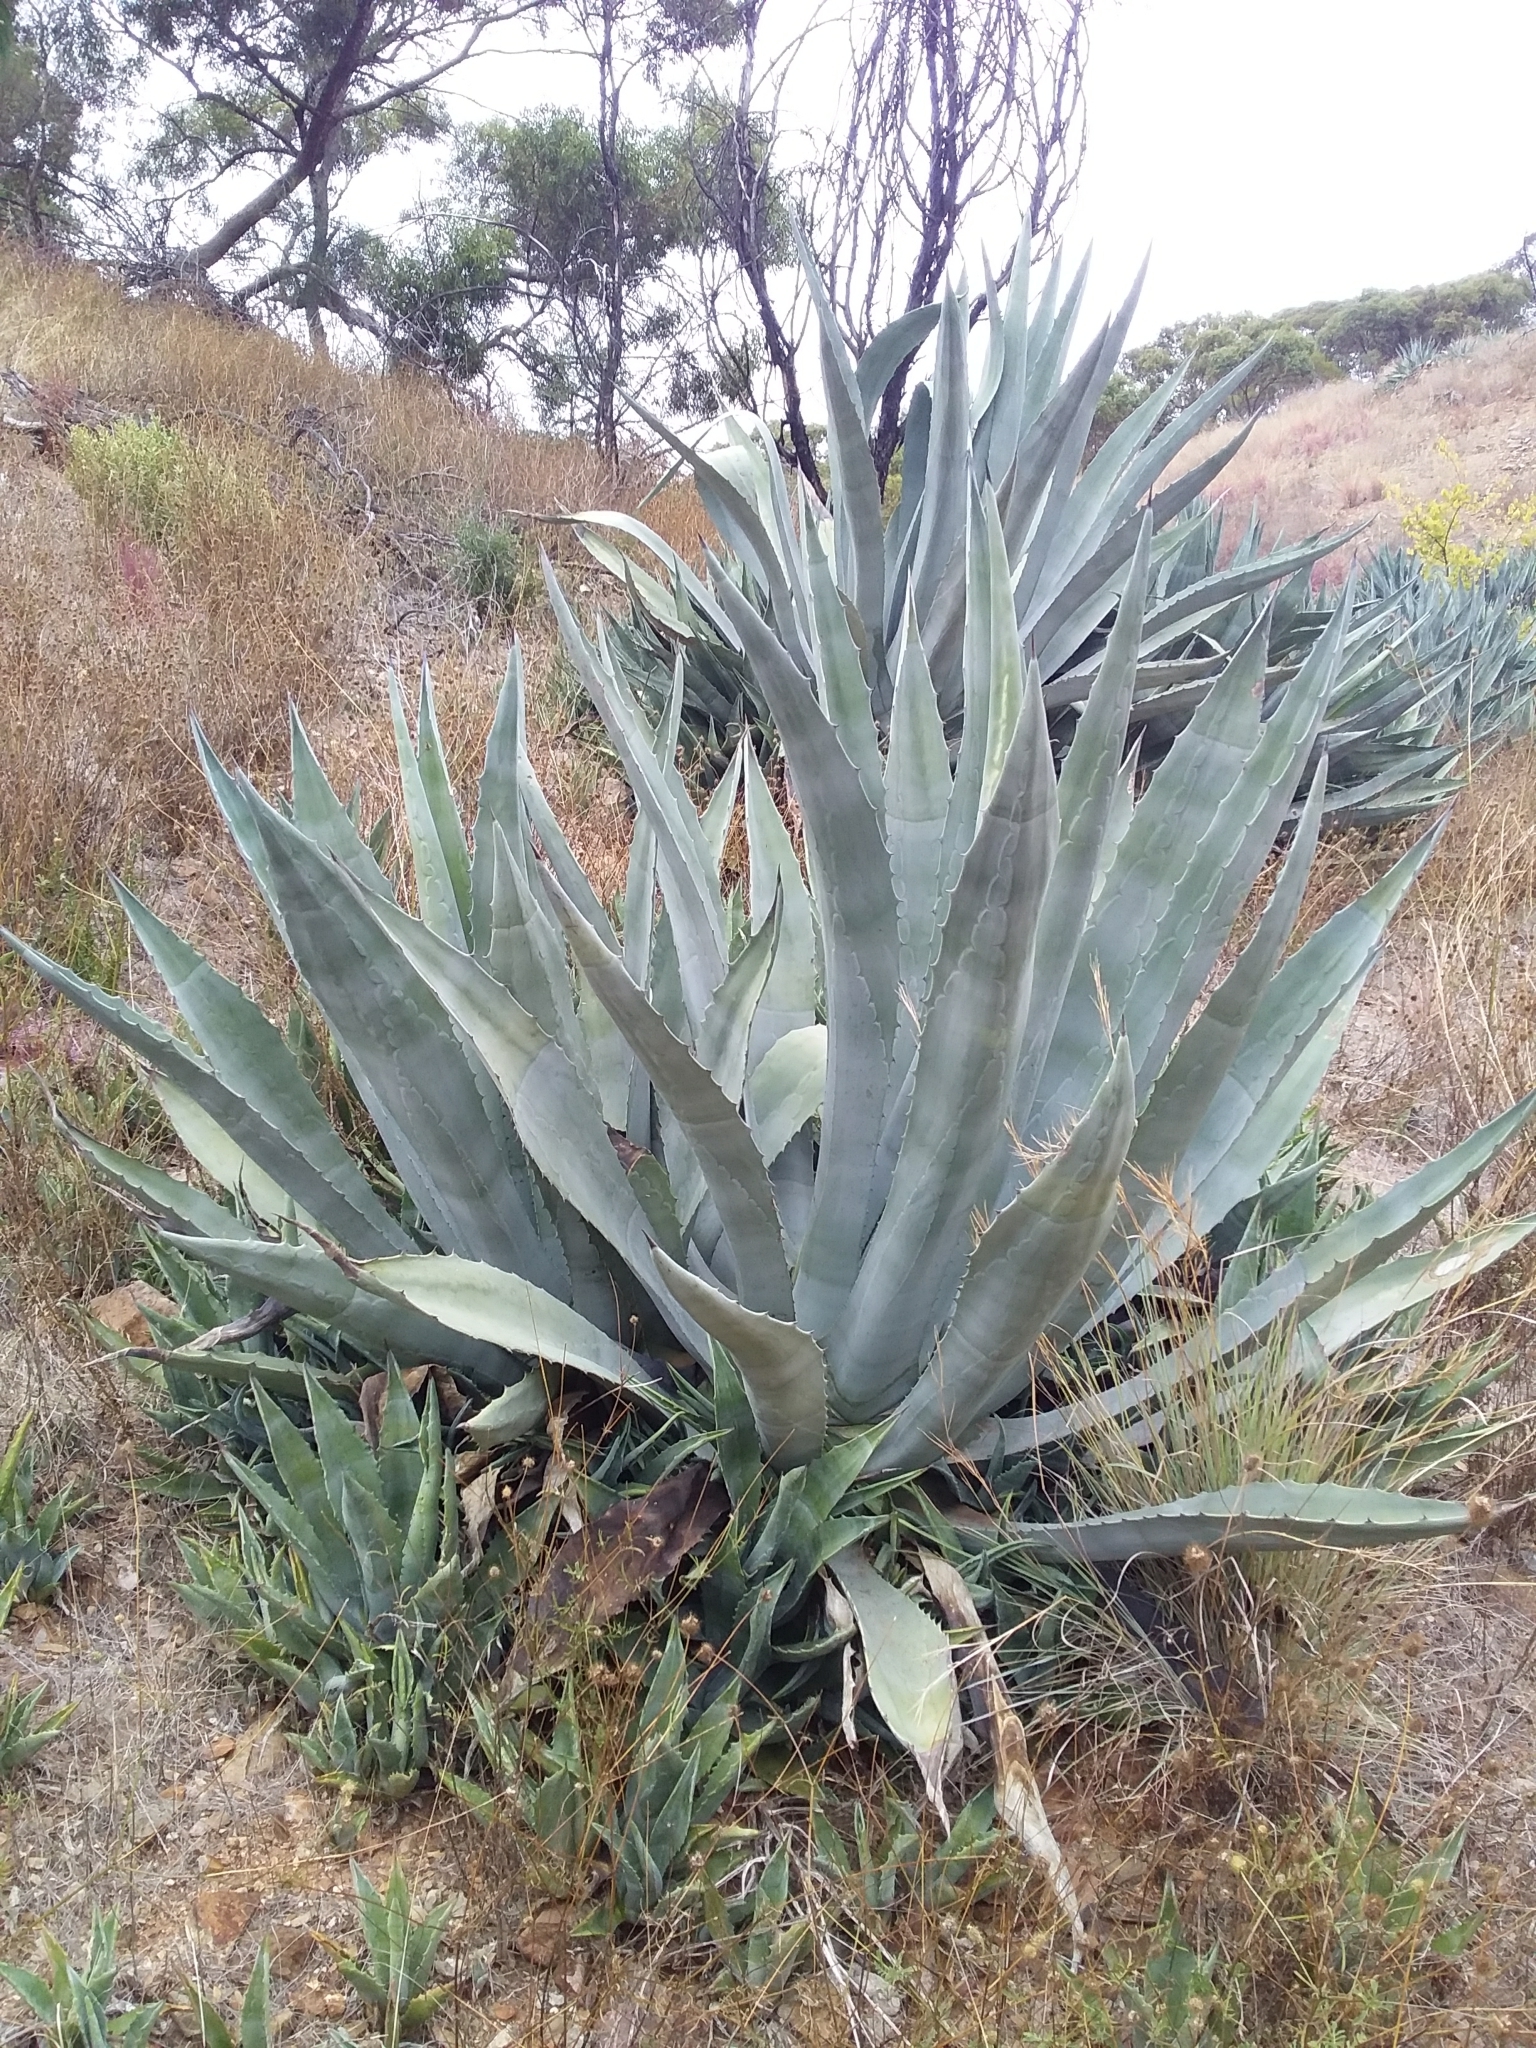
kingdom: Plantae
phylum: Tracheophyta
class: Liliopsida
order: Asparagales
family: Asparagaceae
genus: Agave
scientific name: Agave americana
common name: Centuryplant
